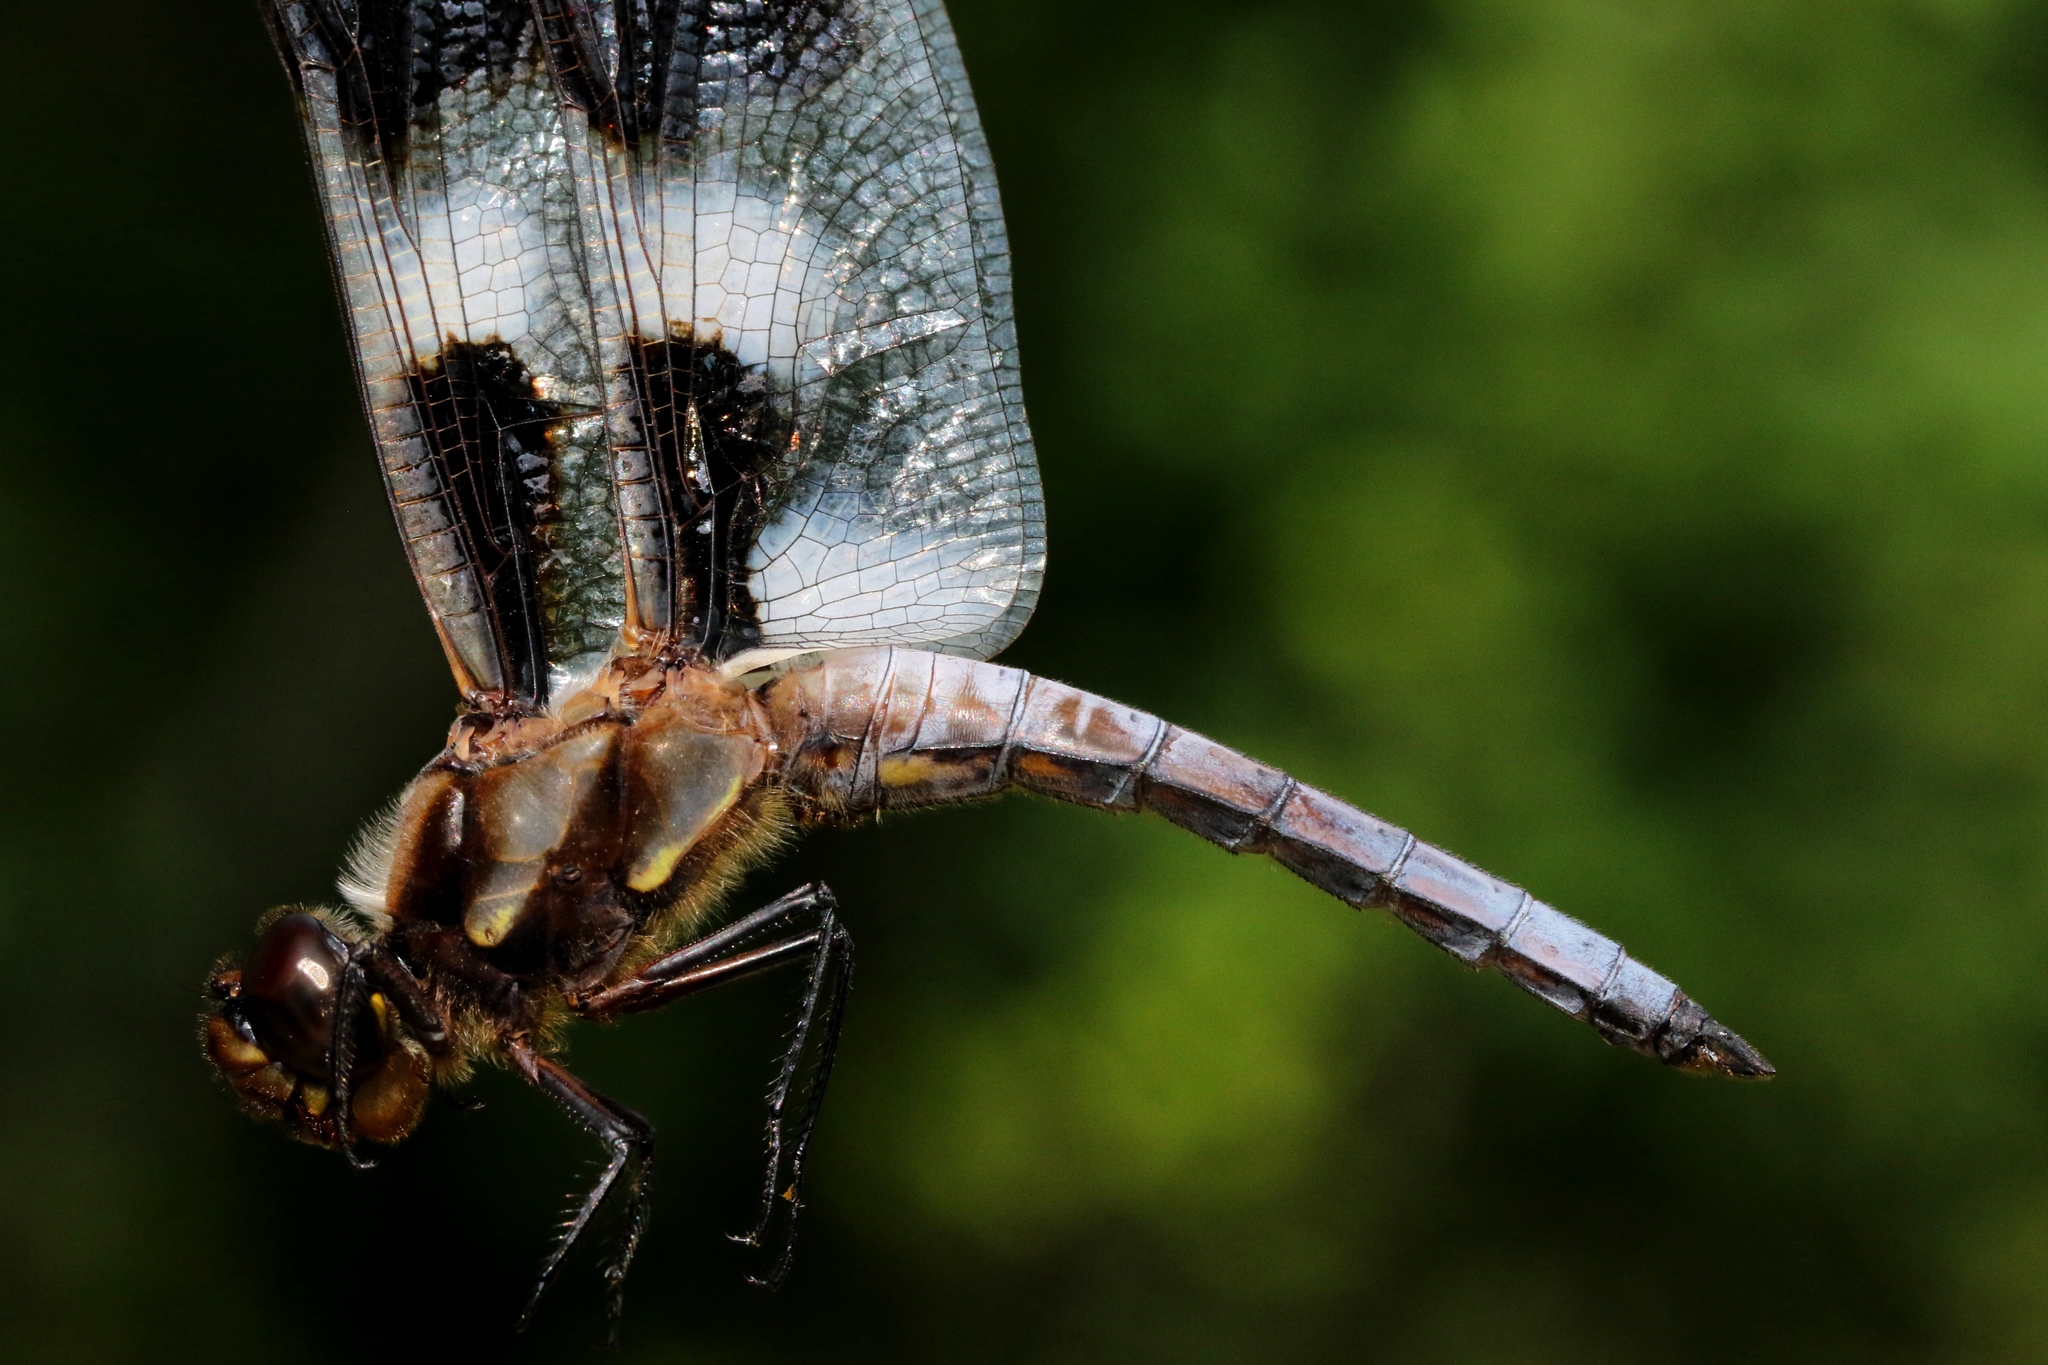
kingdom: Animalia
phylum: Arthropoda
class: Insecta
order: Odonata
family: Libellulidae
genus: Libellula
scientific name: Libellula pulchella
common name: Twelve-spotted skimmer
